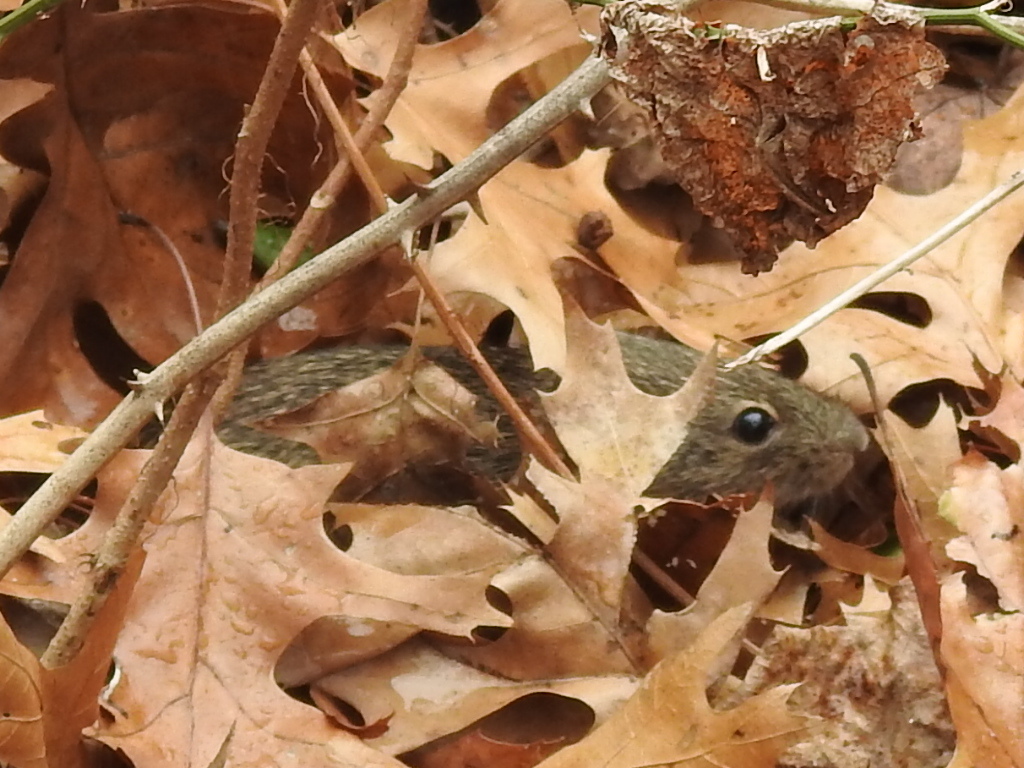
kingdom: Animalia
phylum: Chordata
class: Mammalia
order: Rodentia
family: Cricetidae
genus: Sigmodon
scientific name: Sigmodon hispidus
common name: Hispid cotton rat
